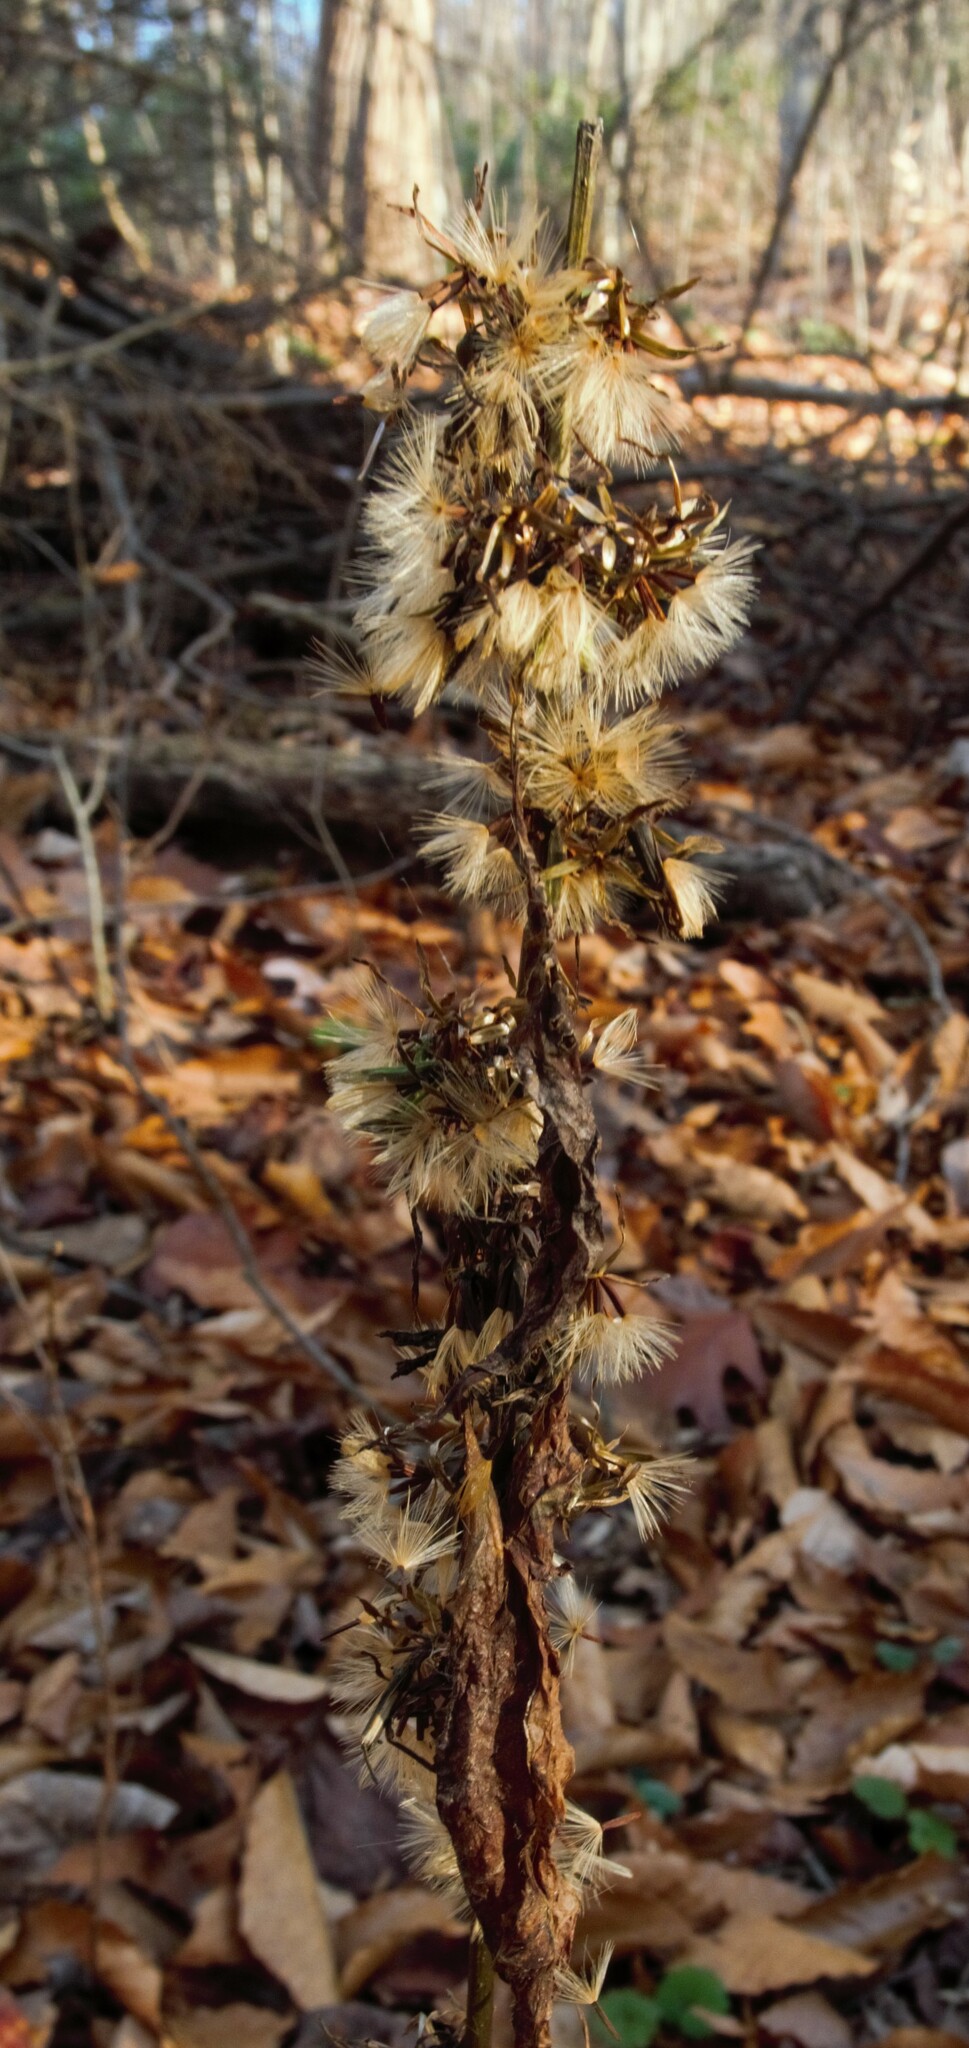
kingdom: Plantae
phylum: Tracheophyta
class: Magnoliopsida
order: Asterales
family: Asteraceae
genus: Solidago
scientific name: Solidago caesia
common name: Woodland goldenrod
